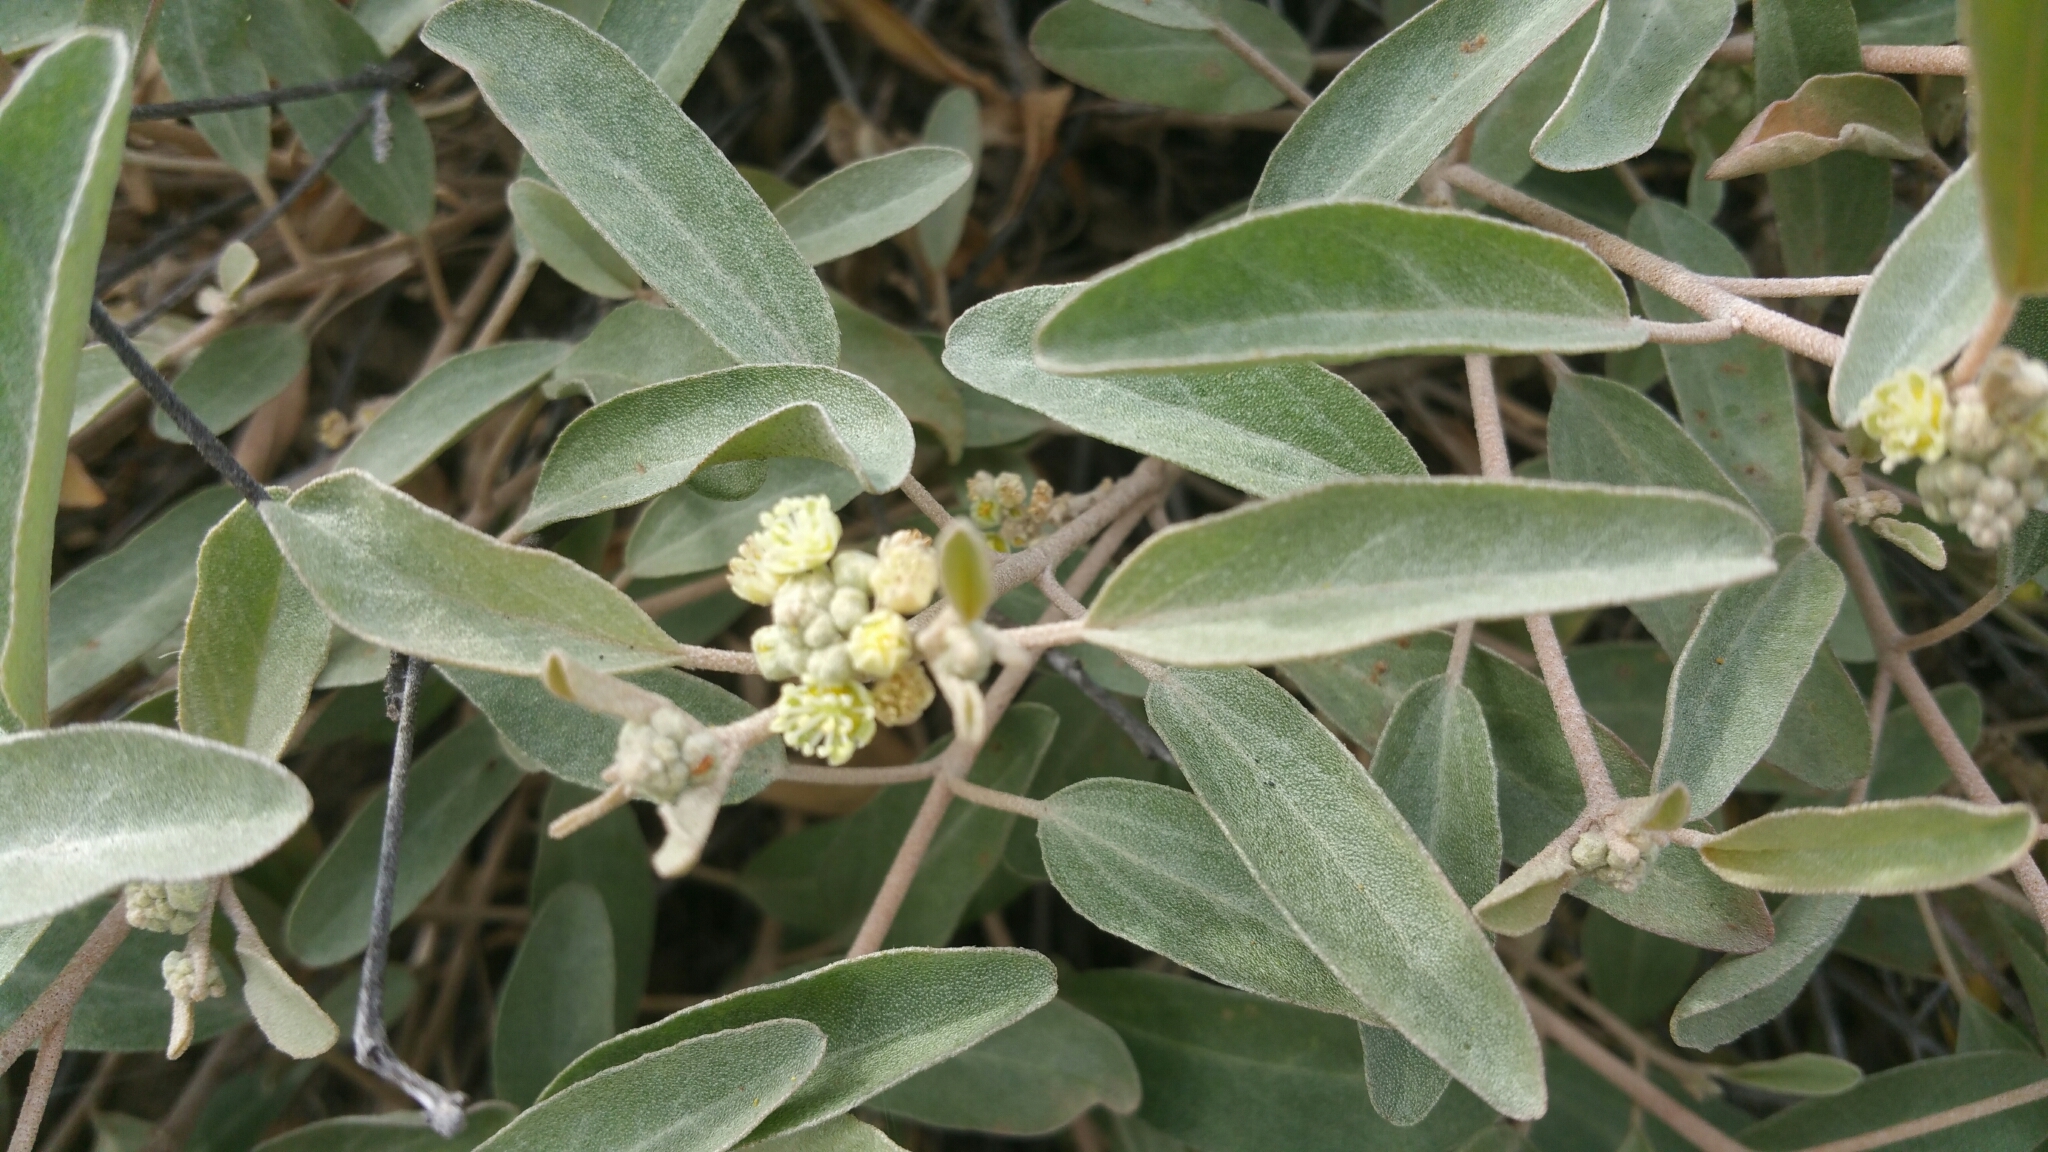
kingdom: Plantae
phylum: Tracheophyta
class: Magnoliopsida
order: Malpighiales
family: Euphorbiaceae
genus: Croton
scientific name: Croton californicus
